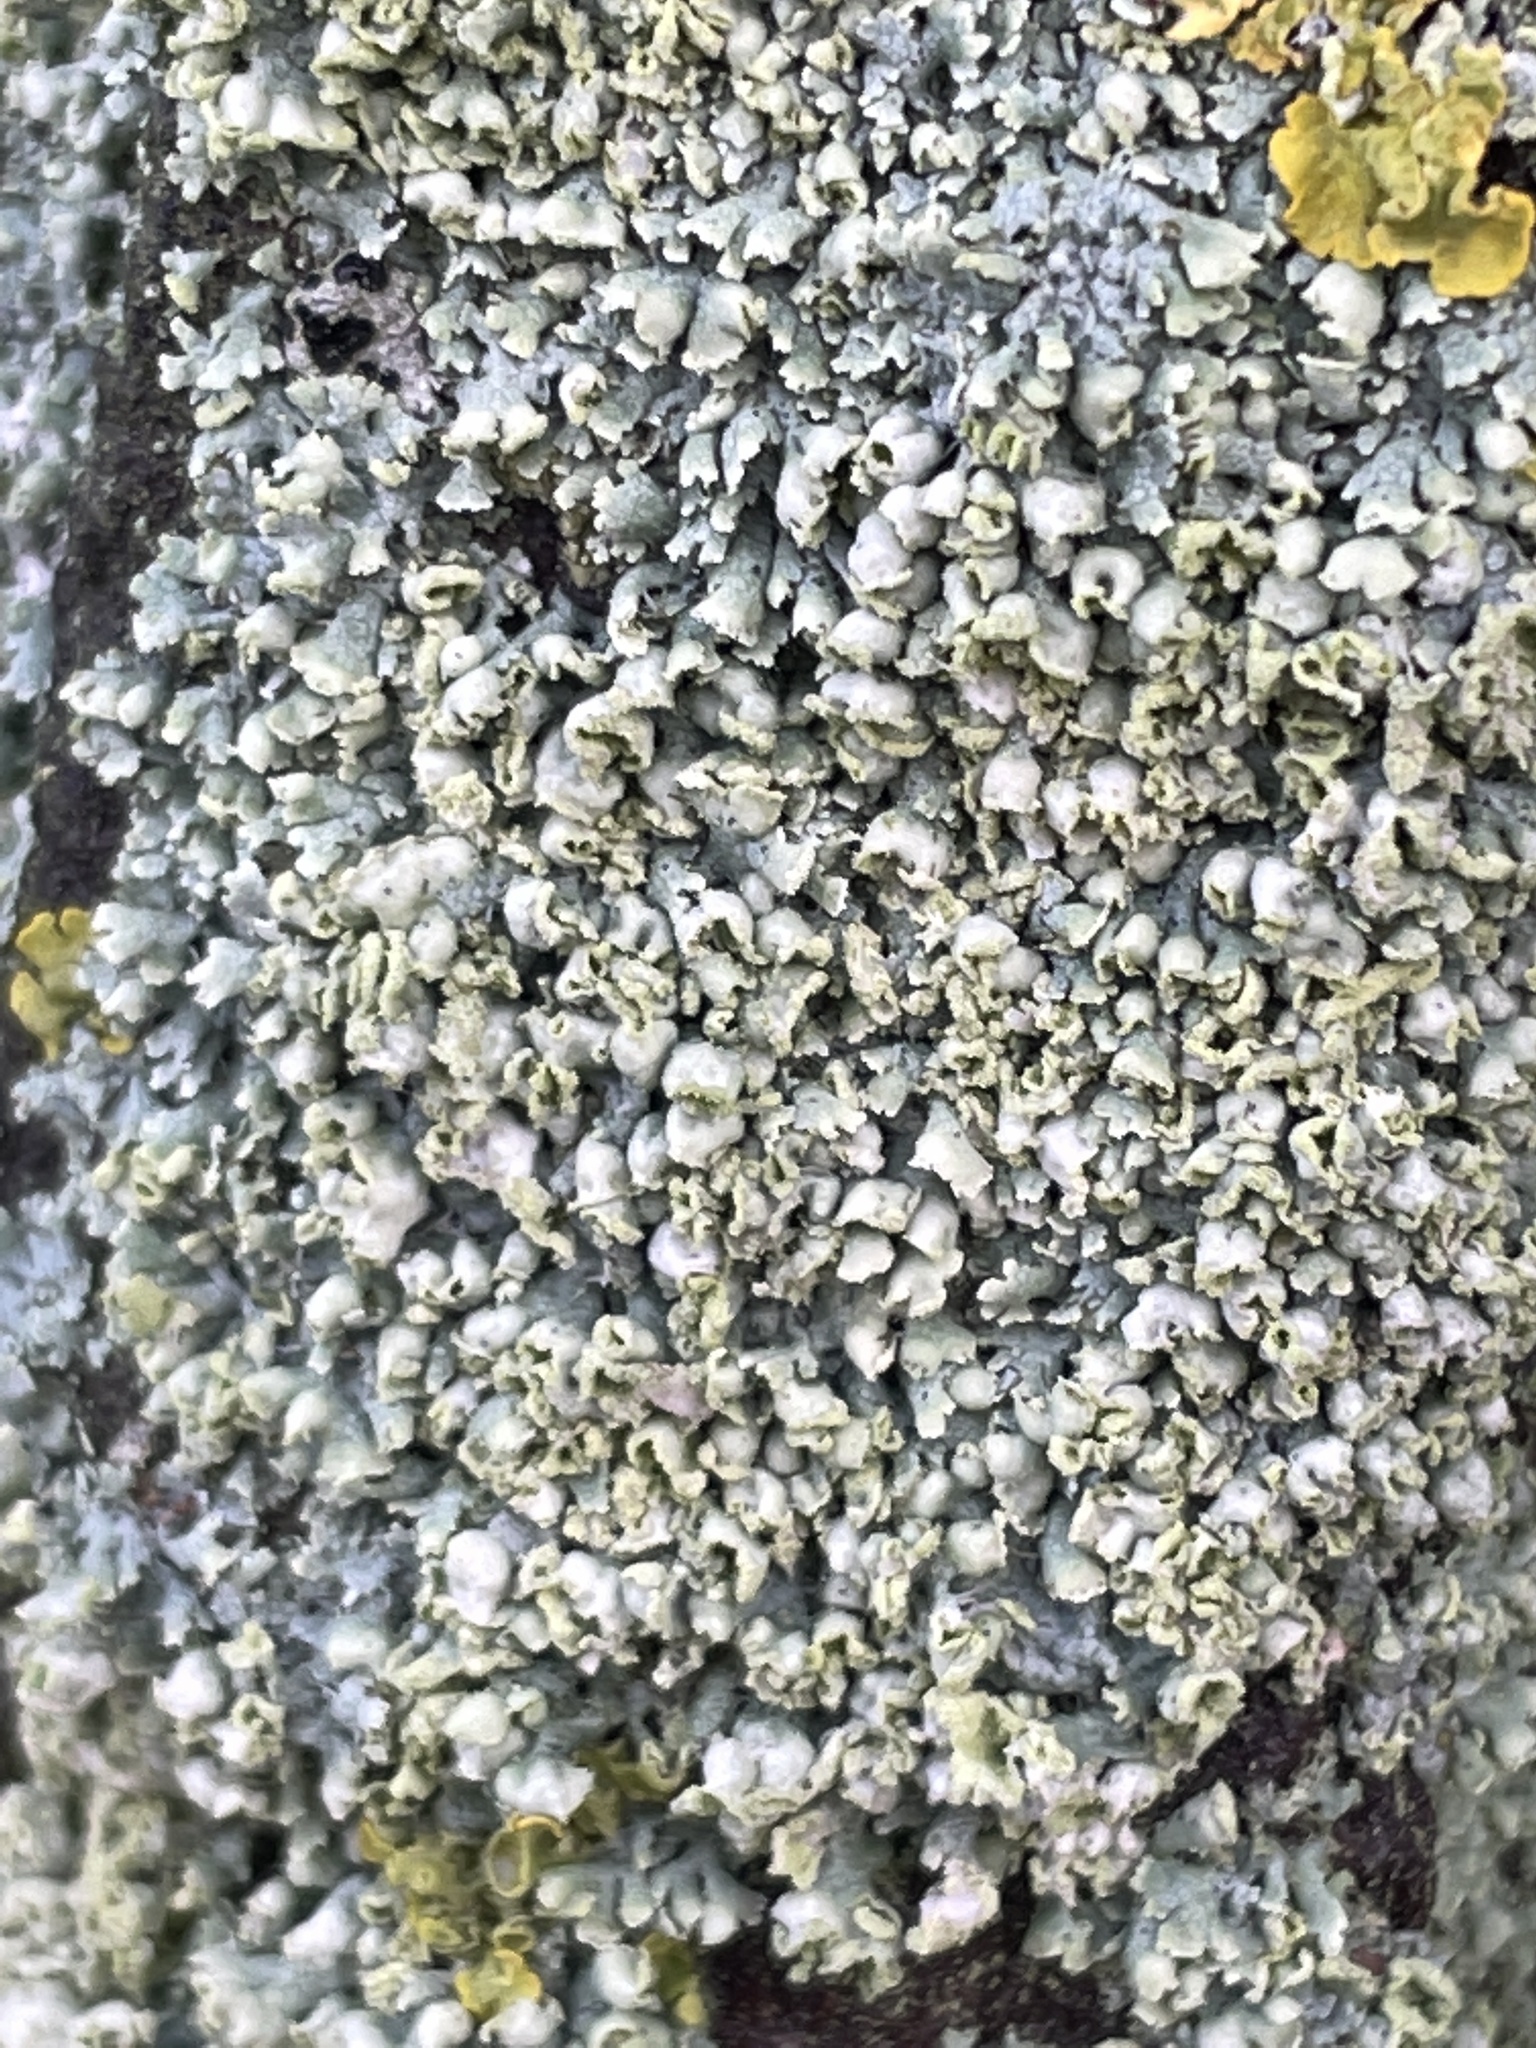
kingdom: Fungi
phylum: Ascomycota
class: Lecanoromycetes
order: Caliciales
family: Physciaceae
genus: Physcia
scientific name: Physcia adscendens
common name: Hooded rosette lichen
